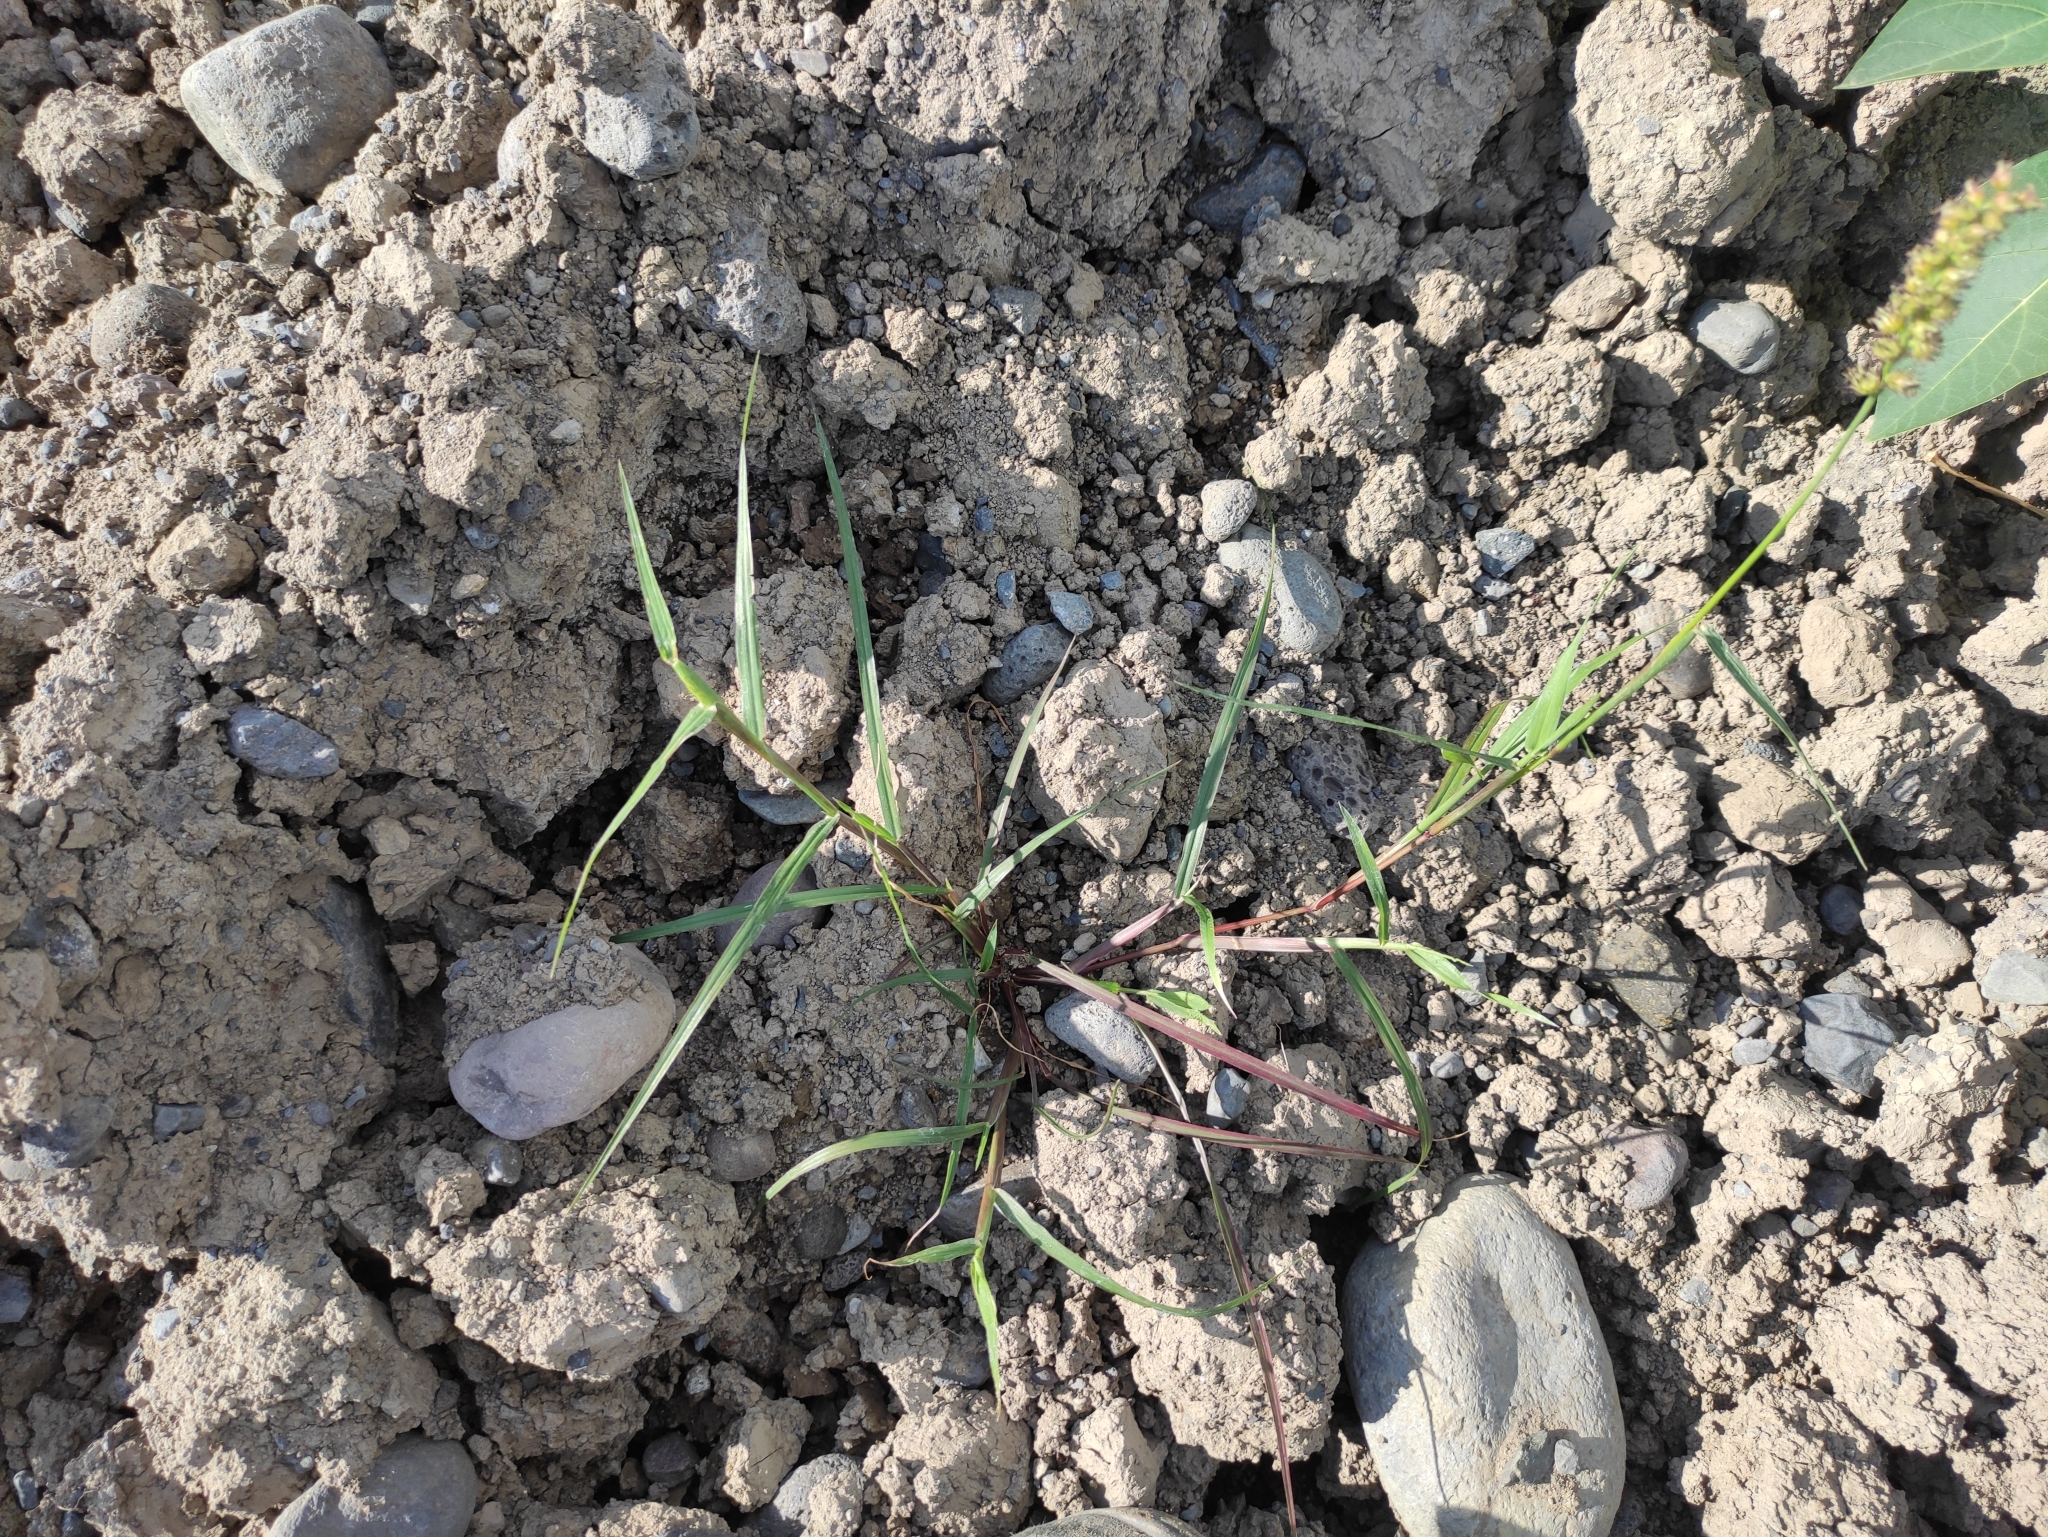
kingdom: Plantae
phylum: Tracheophyta
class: Liliopsida
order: Poales
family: Poaceae
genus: Cenchrus
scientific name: Cenchrus echinatus
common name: Southern sandbur
